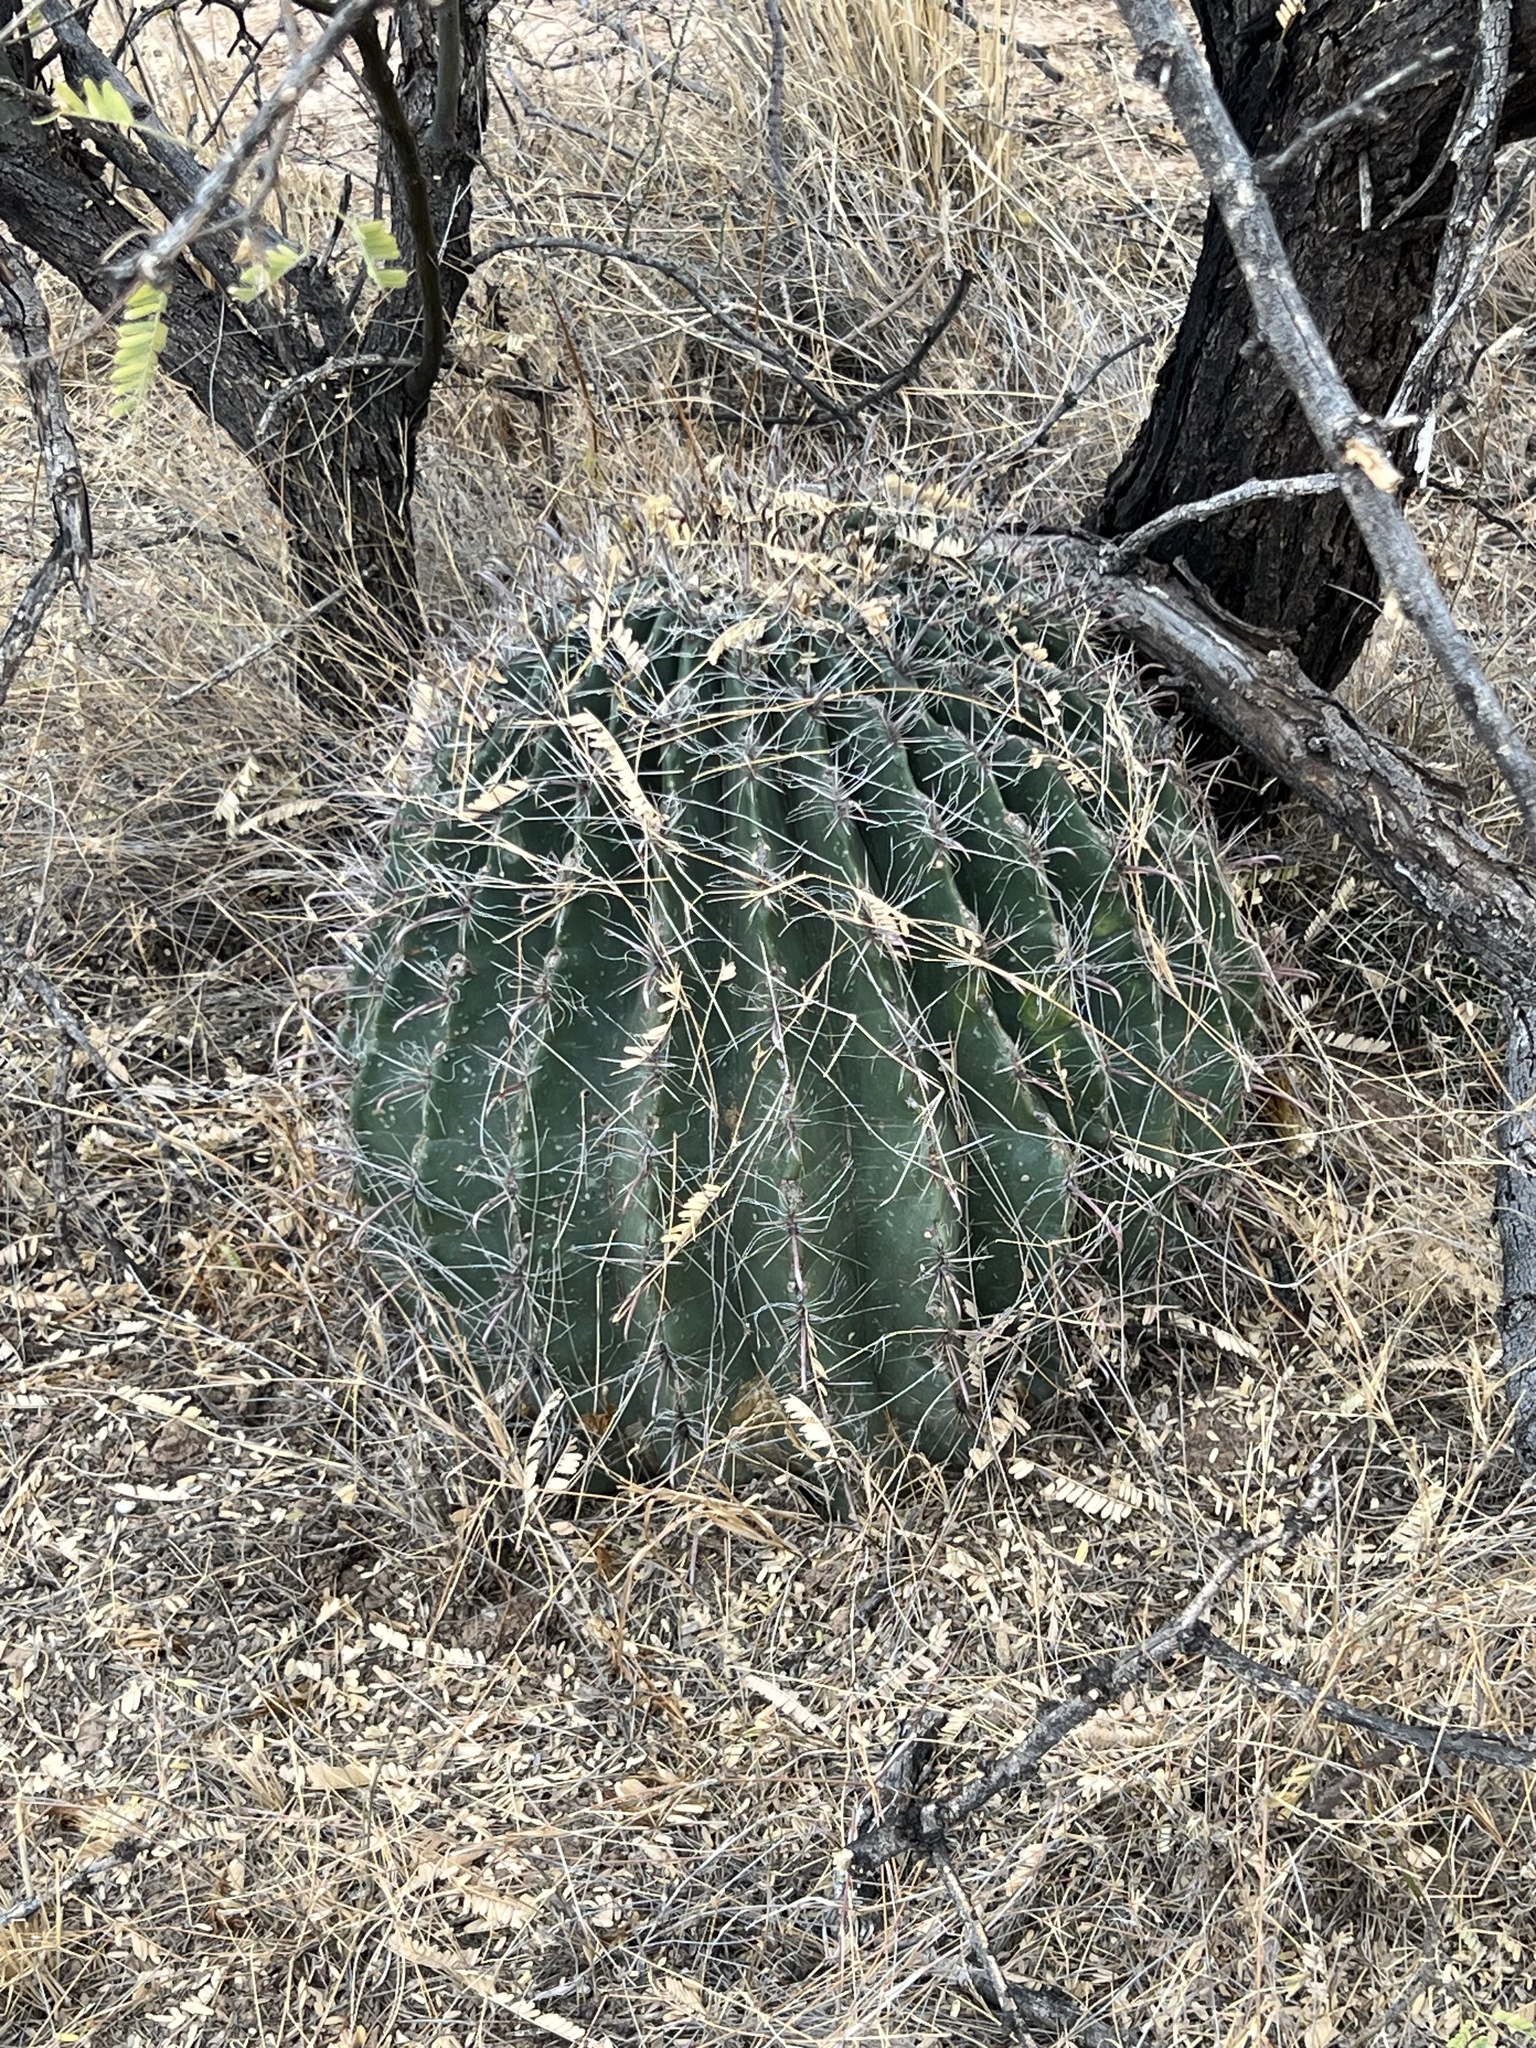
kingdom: Plantae
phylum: Tracheophyta
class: Magnoliopsida
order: Caryophyllales
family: Cactaceae
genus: Ferocactus
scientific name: Ferocactus wislizeni
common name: Candy barrel cactus
